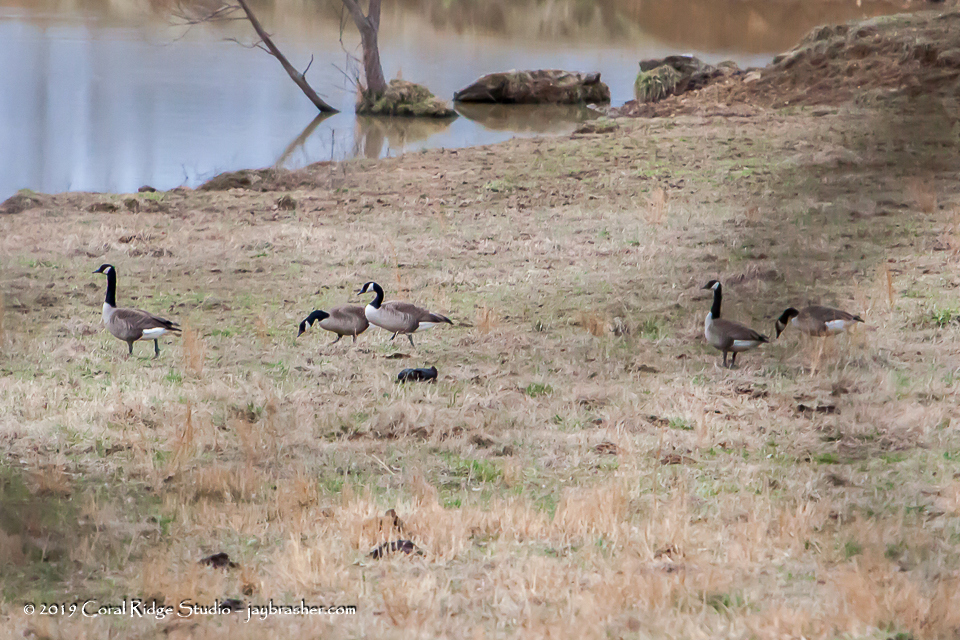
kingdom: Animalia
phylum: Chordata
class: Aves
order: Anseriformes
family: Anatidae
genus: Branta
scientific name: Branta canadensis
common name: Canada goose
